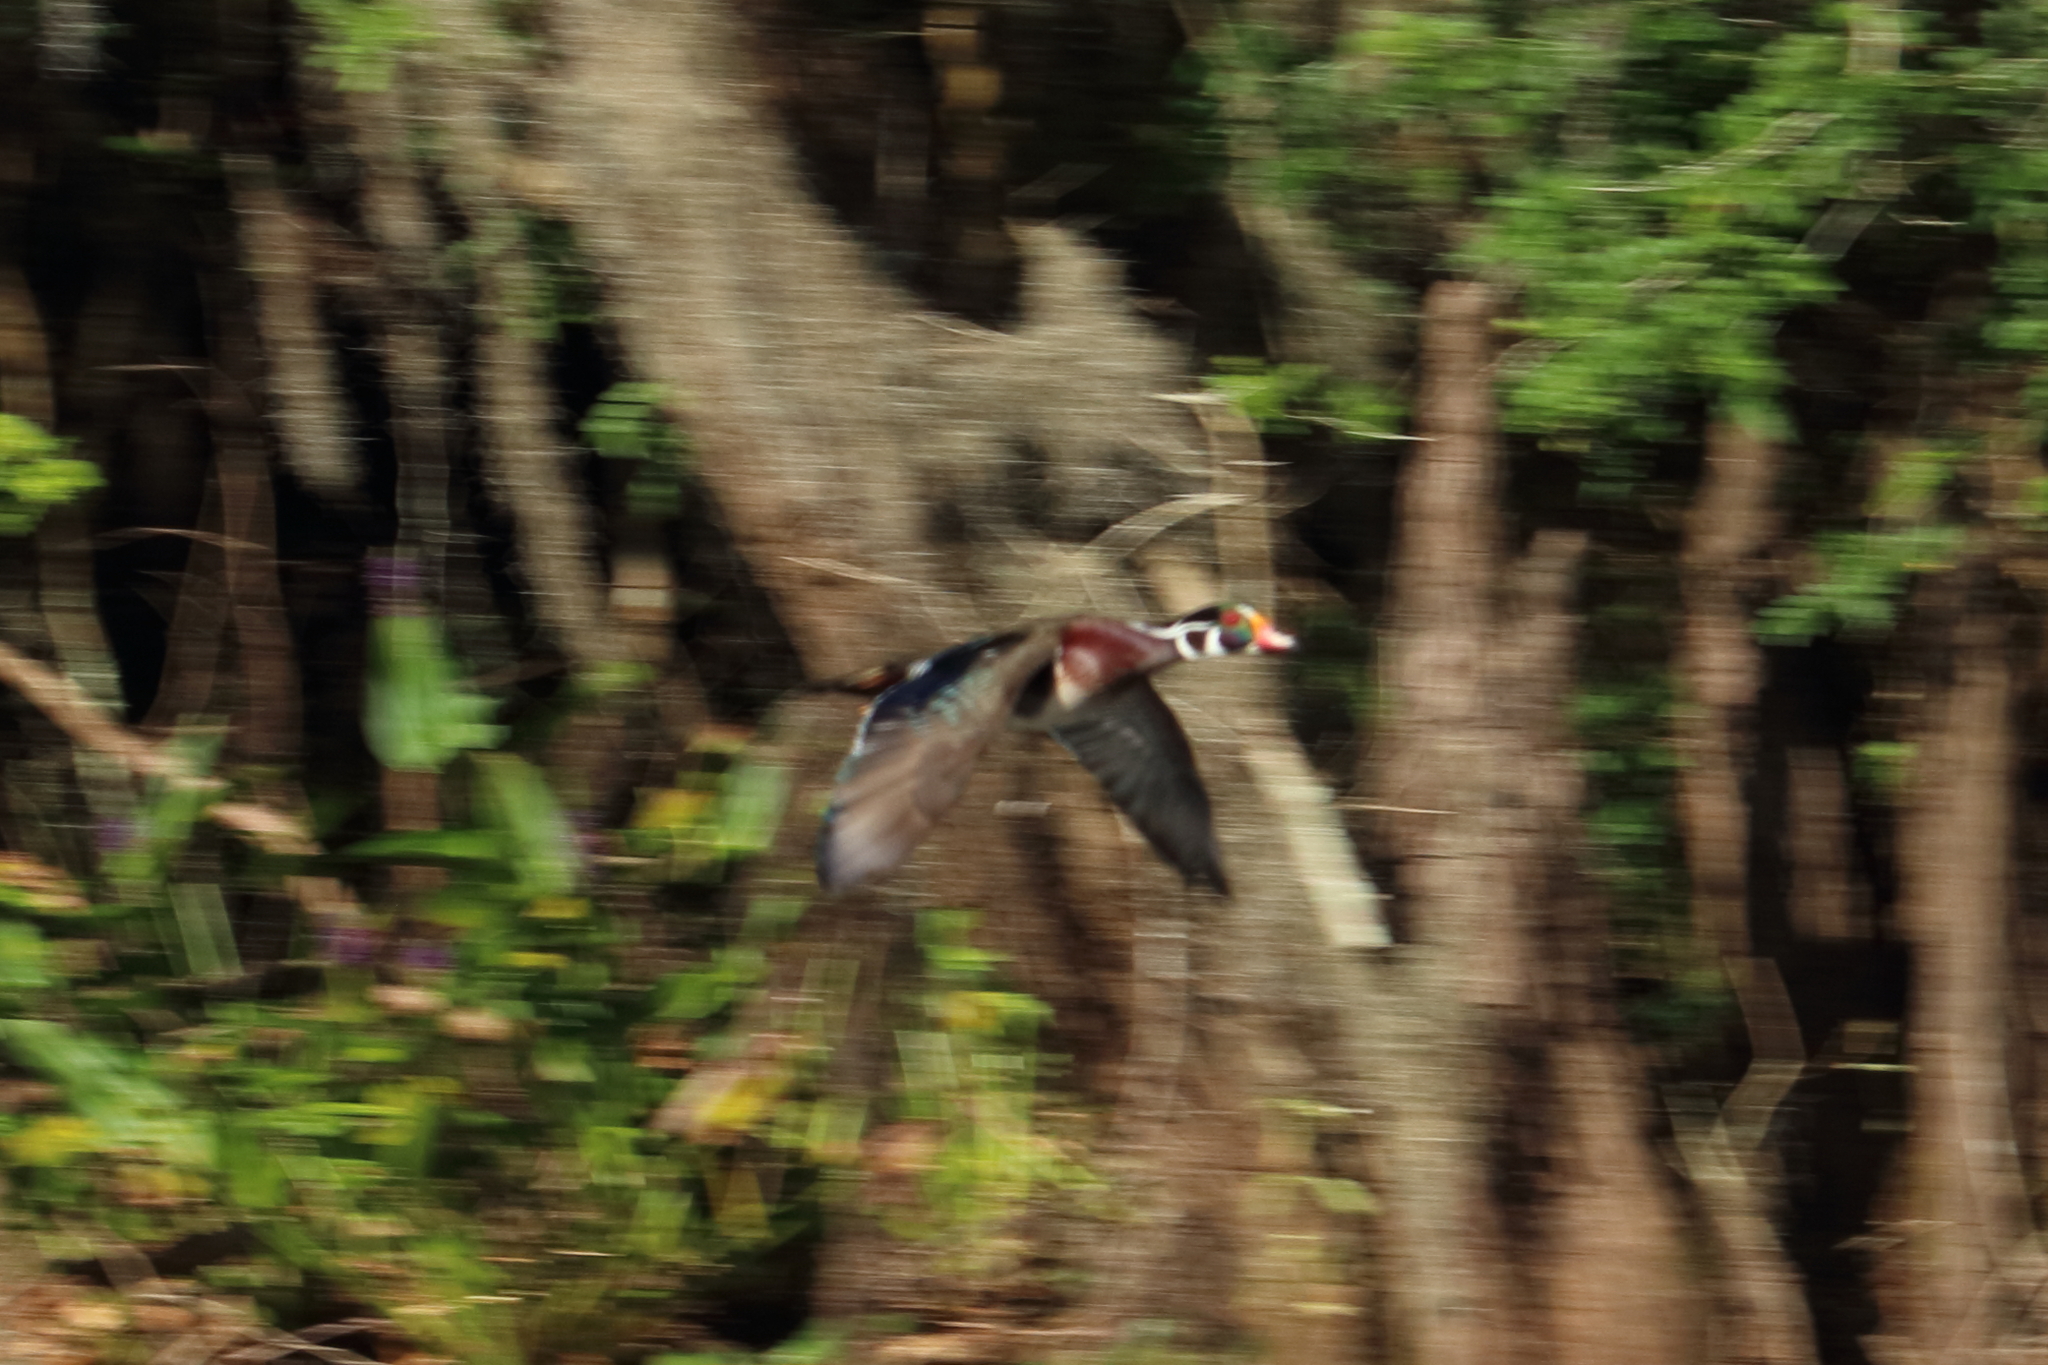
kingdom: Animalia
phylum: Chordata
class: Aves
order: Anseriformes
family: Anatidae
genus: Aix
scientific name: Aix sponsa
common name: Wood duck
